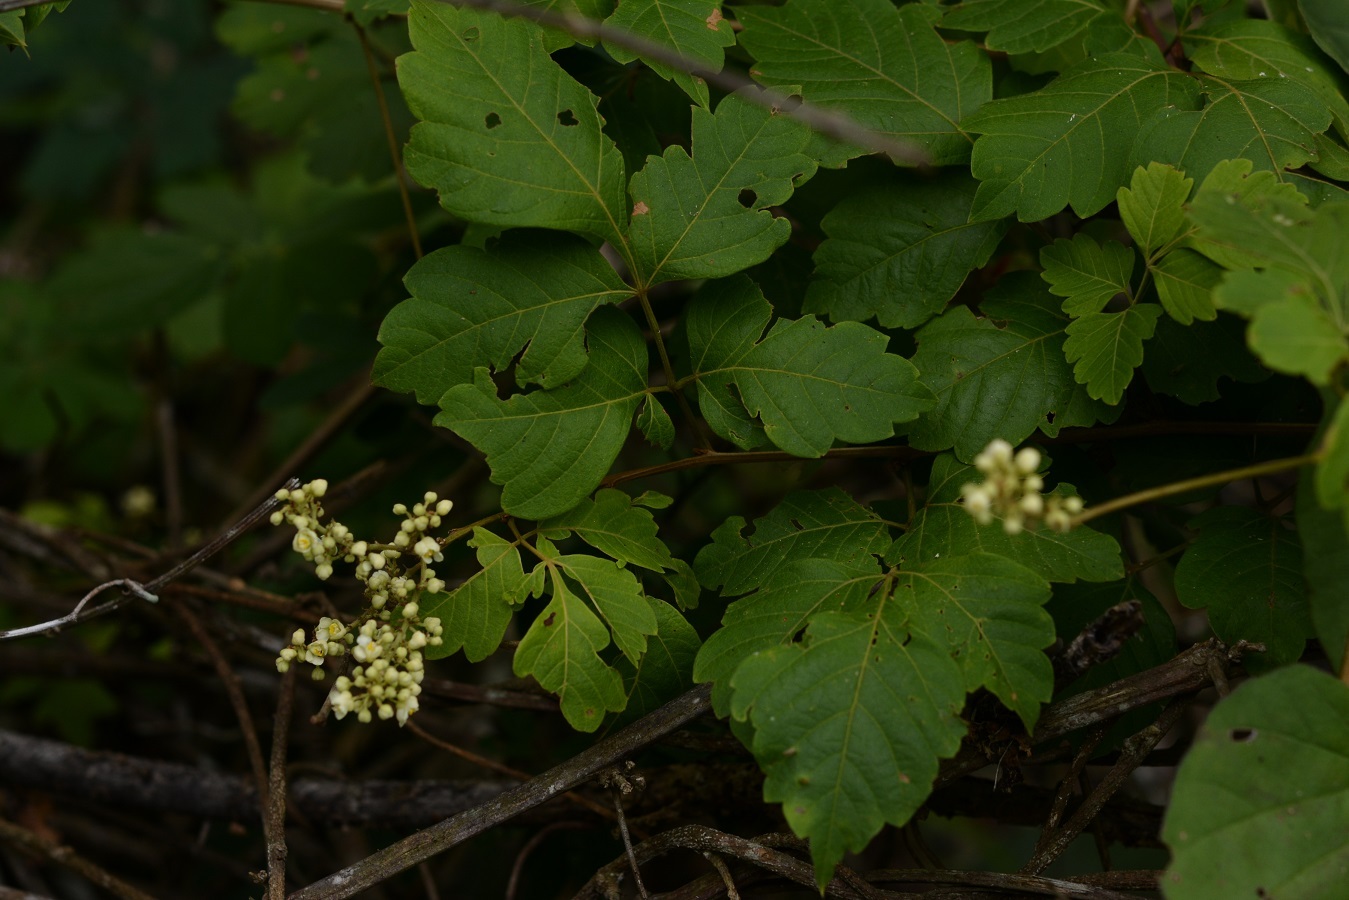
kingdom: Plantae
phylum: Tracheophyta
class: Magnoliopsida
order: Sapindales
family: Sapindaceae
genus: Serjania
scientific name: Serjania racemosa
